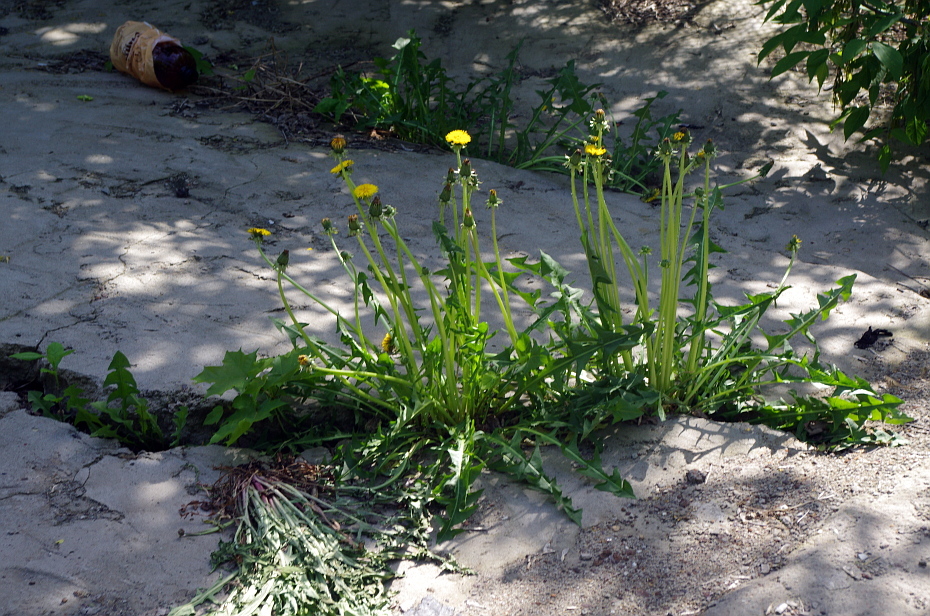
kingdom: Plantae
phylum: Tracheophyta
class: Magnoliopsida
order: Asterales
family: Asteraceae
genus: Taraxacum
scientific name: Taraxacum officinale
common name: Common dandelion
